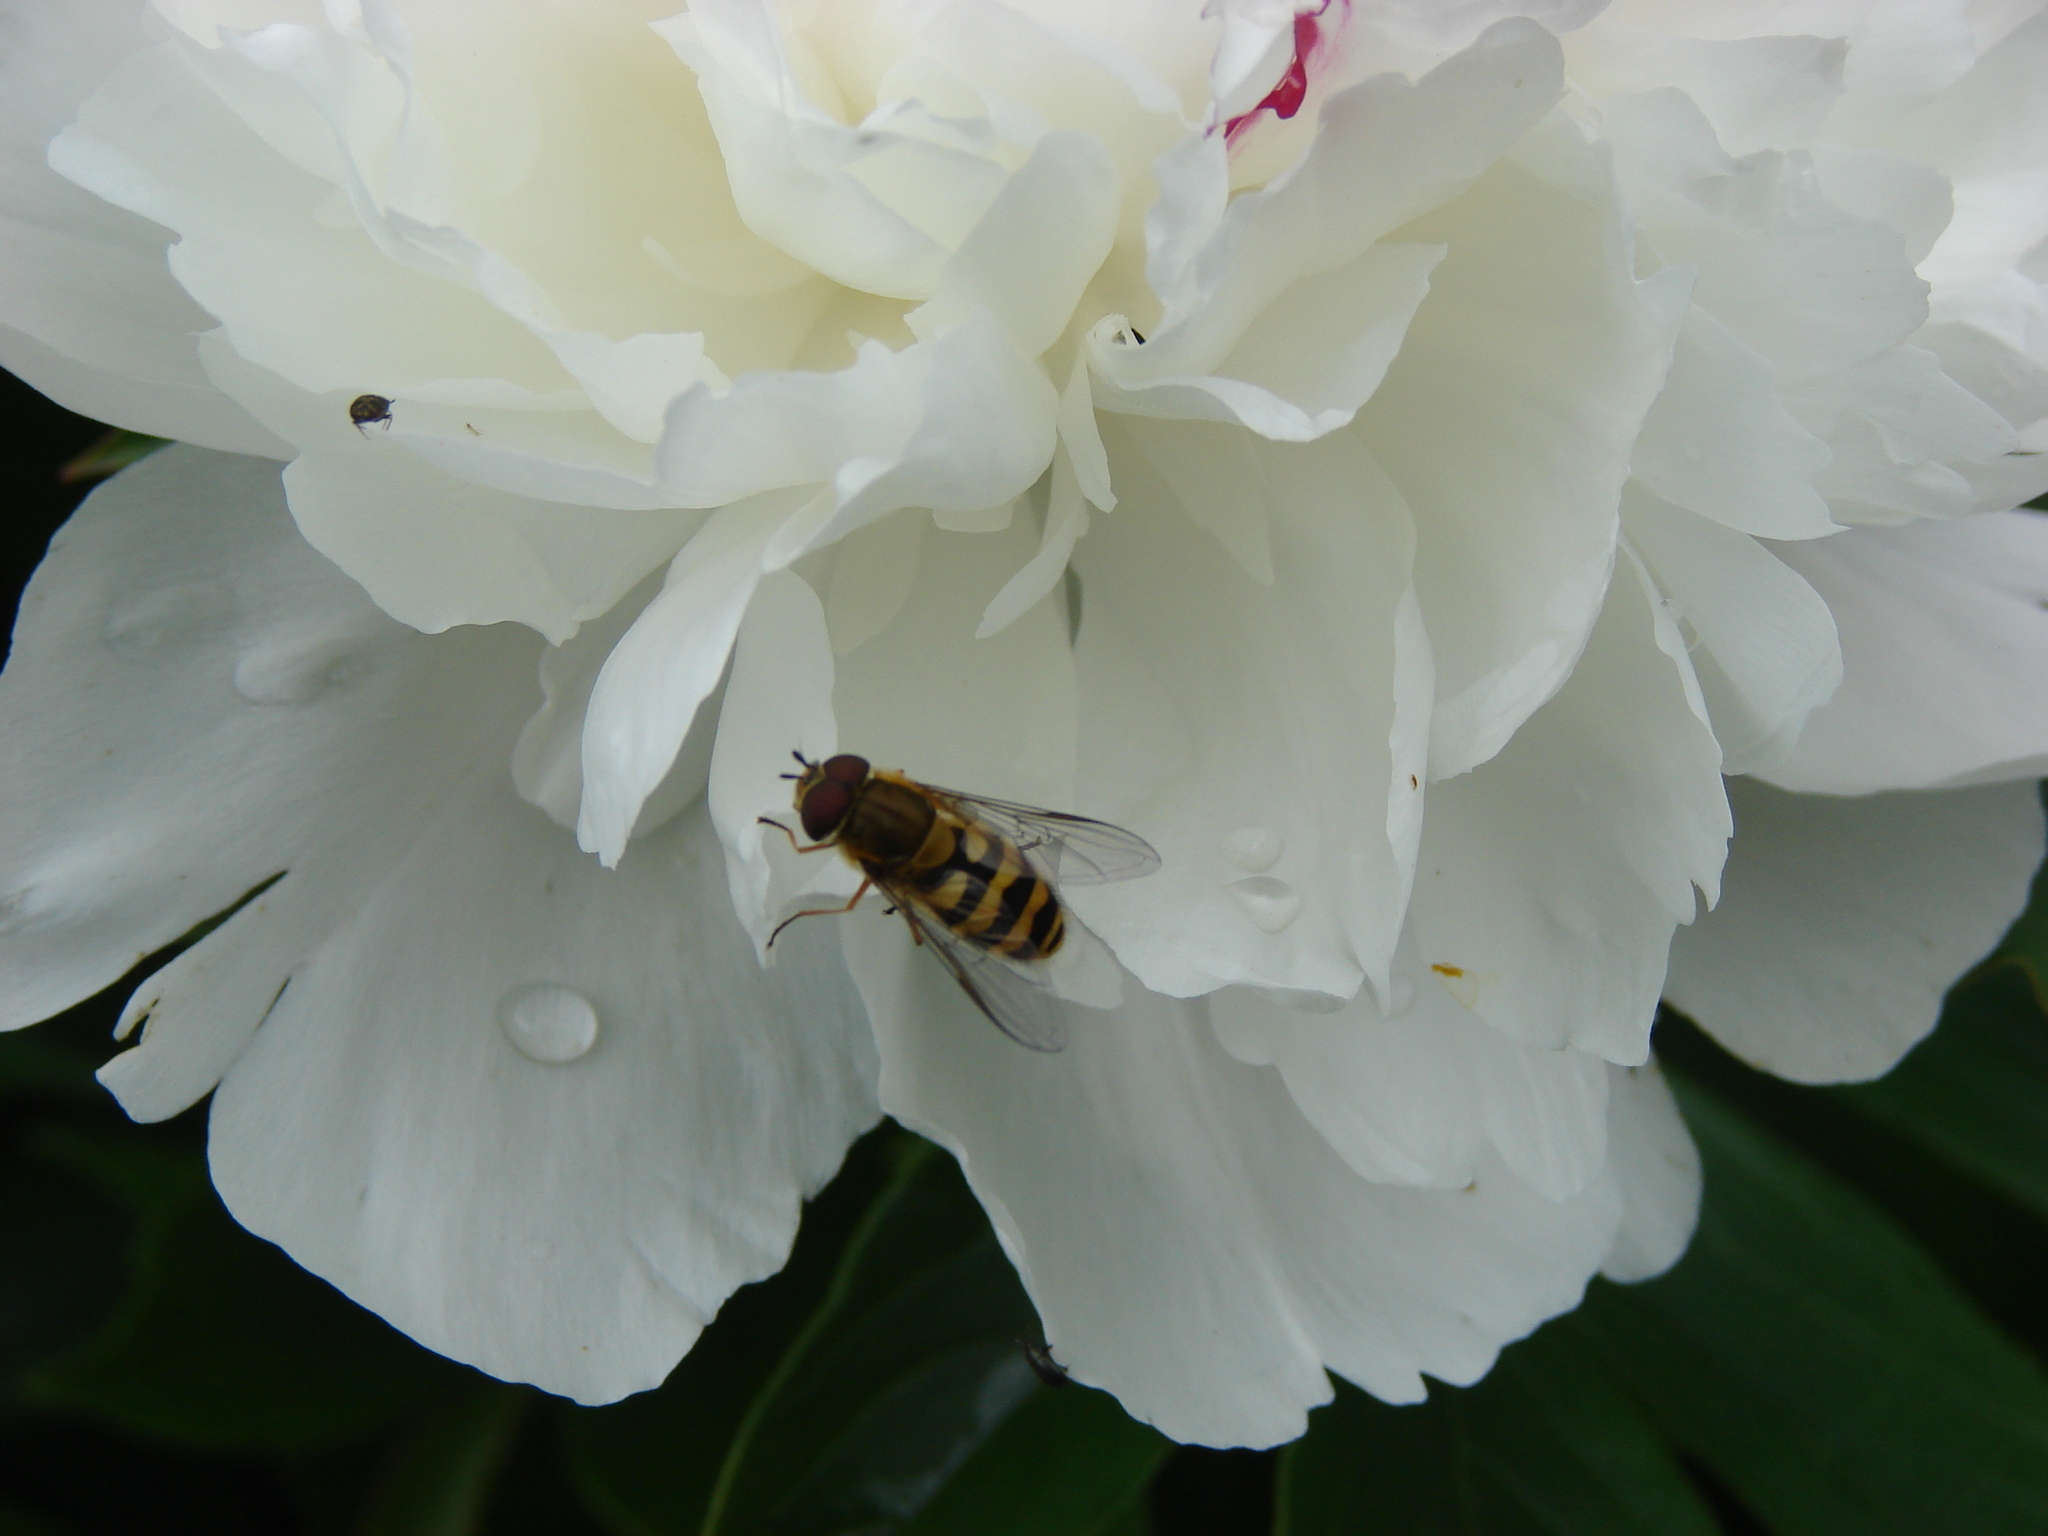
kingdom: Animalia
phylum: Arthropoda
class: Insecta
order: Diptera
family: Syrphidae
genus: Syrphus
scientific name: Syrphus
